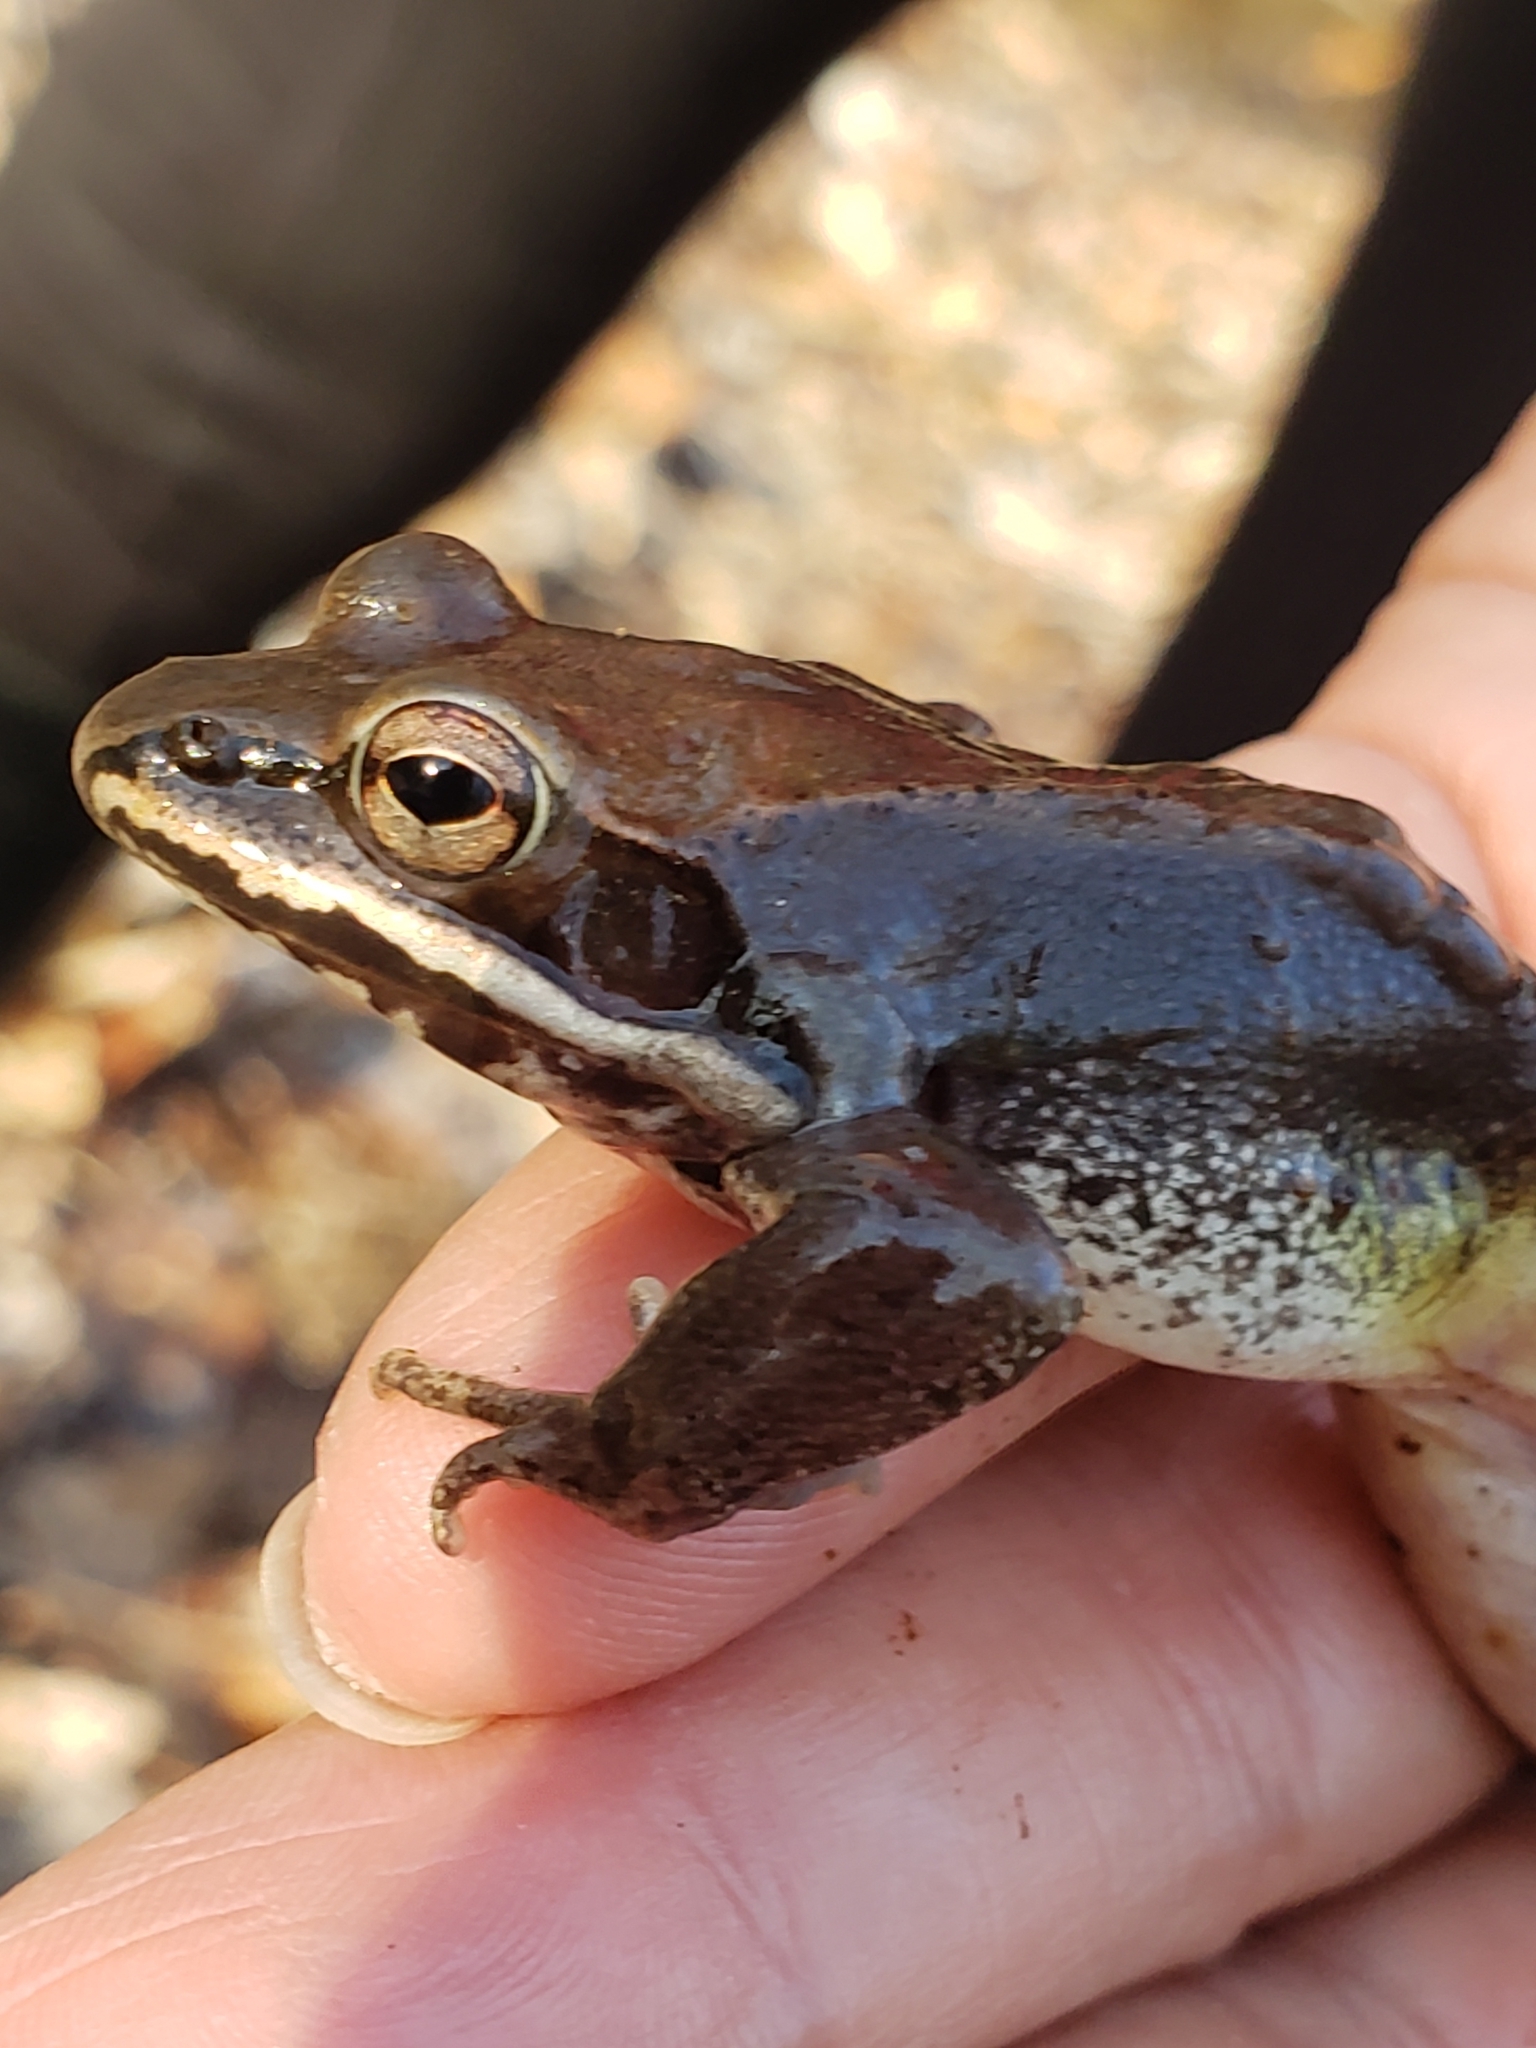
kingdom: Animalia
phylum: Chordata
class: Amphibia
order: Anura
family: Ranidae
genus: Lithobates
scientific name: Lithobates sylvaticus
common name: Wood frog
